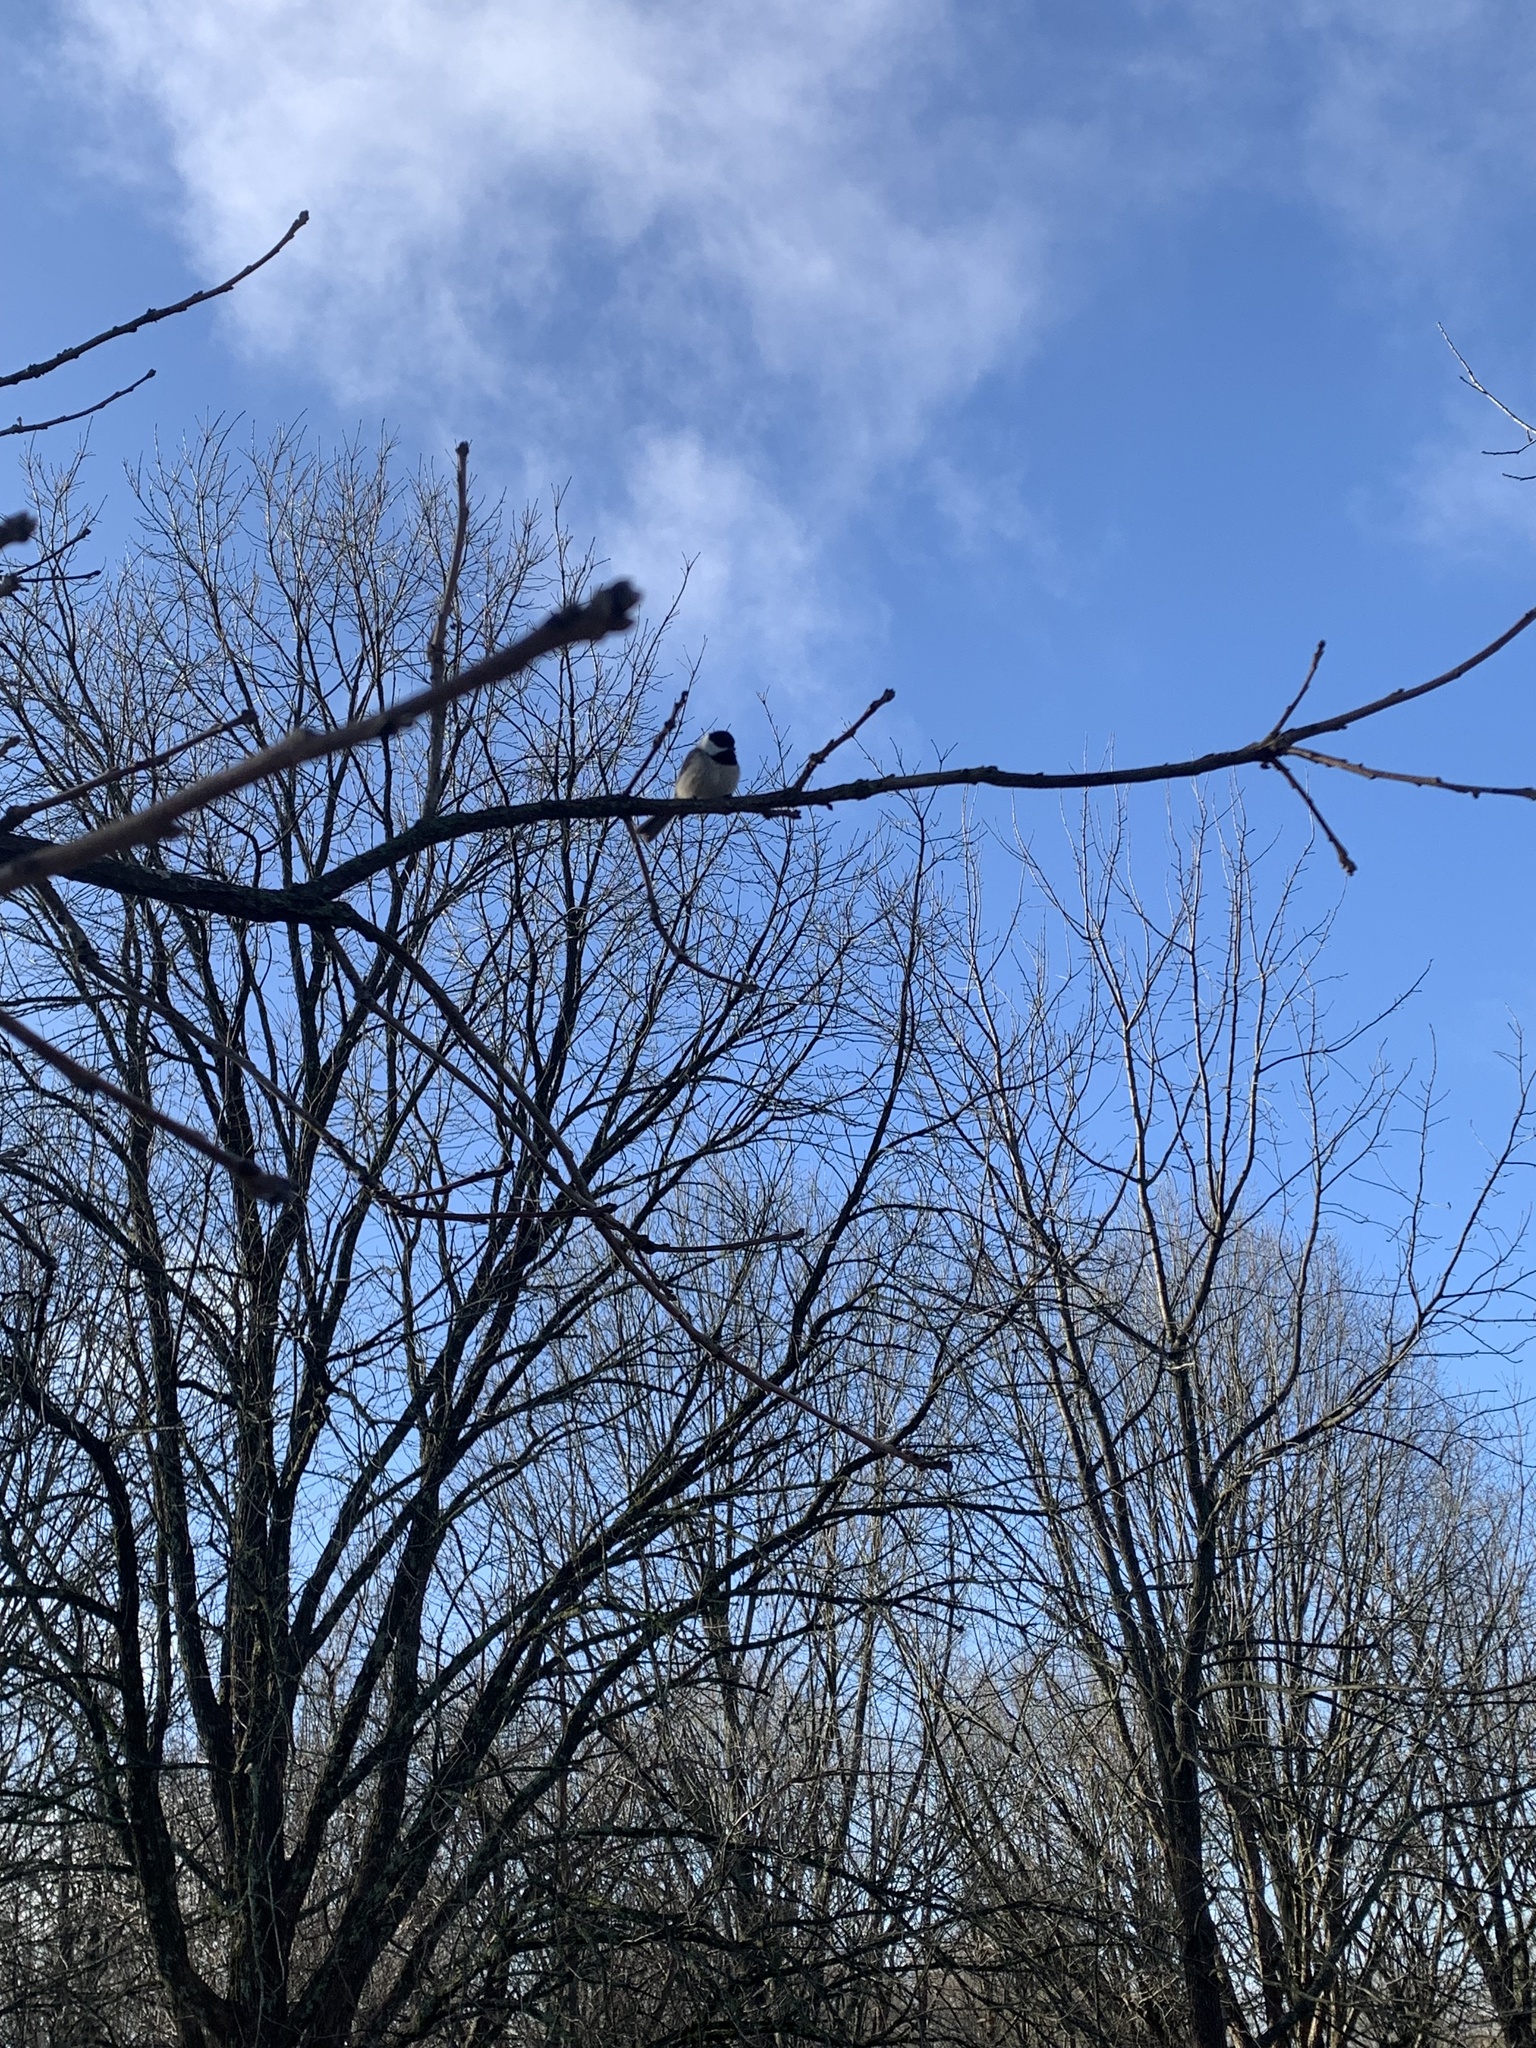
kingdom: Animalia
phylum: Chordata
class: Aves
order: Passeriformes
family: Paridae
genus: Poecile
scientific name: Poecile carolinensis
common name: Carolina chickadee
